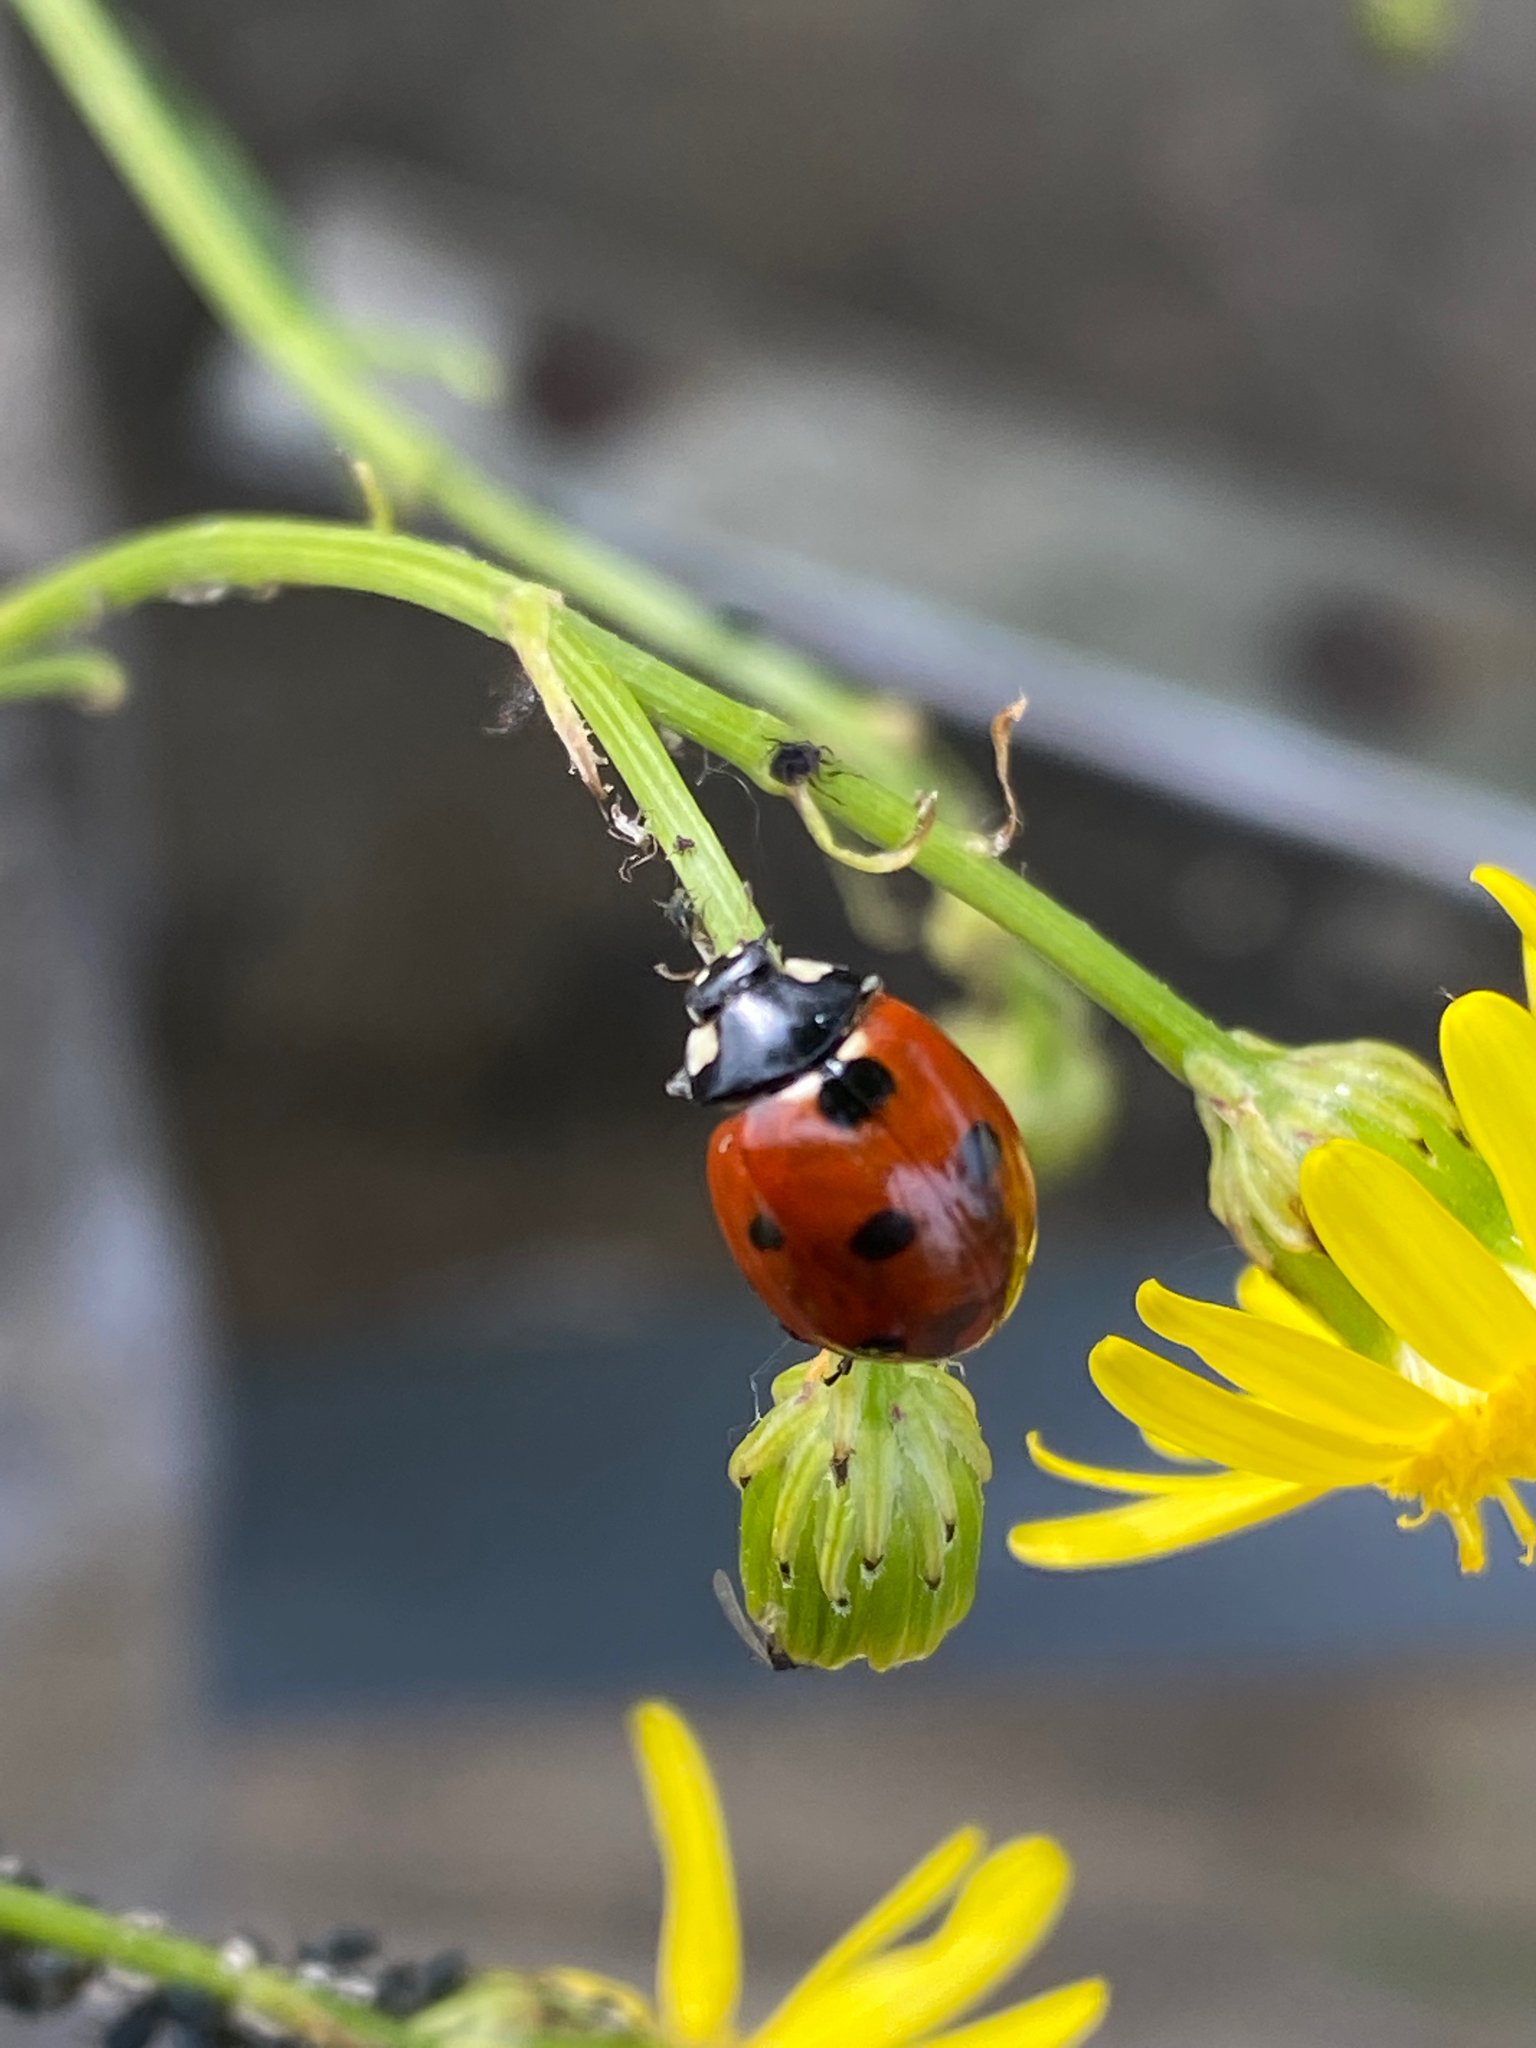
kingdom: Animalia
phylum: Arthropoda
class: Insecta
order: Coleoptera
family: Coccinellidae
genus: Coccinella
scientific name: Coccinella septempunctata
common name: Sevenspotted lady beetle
